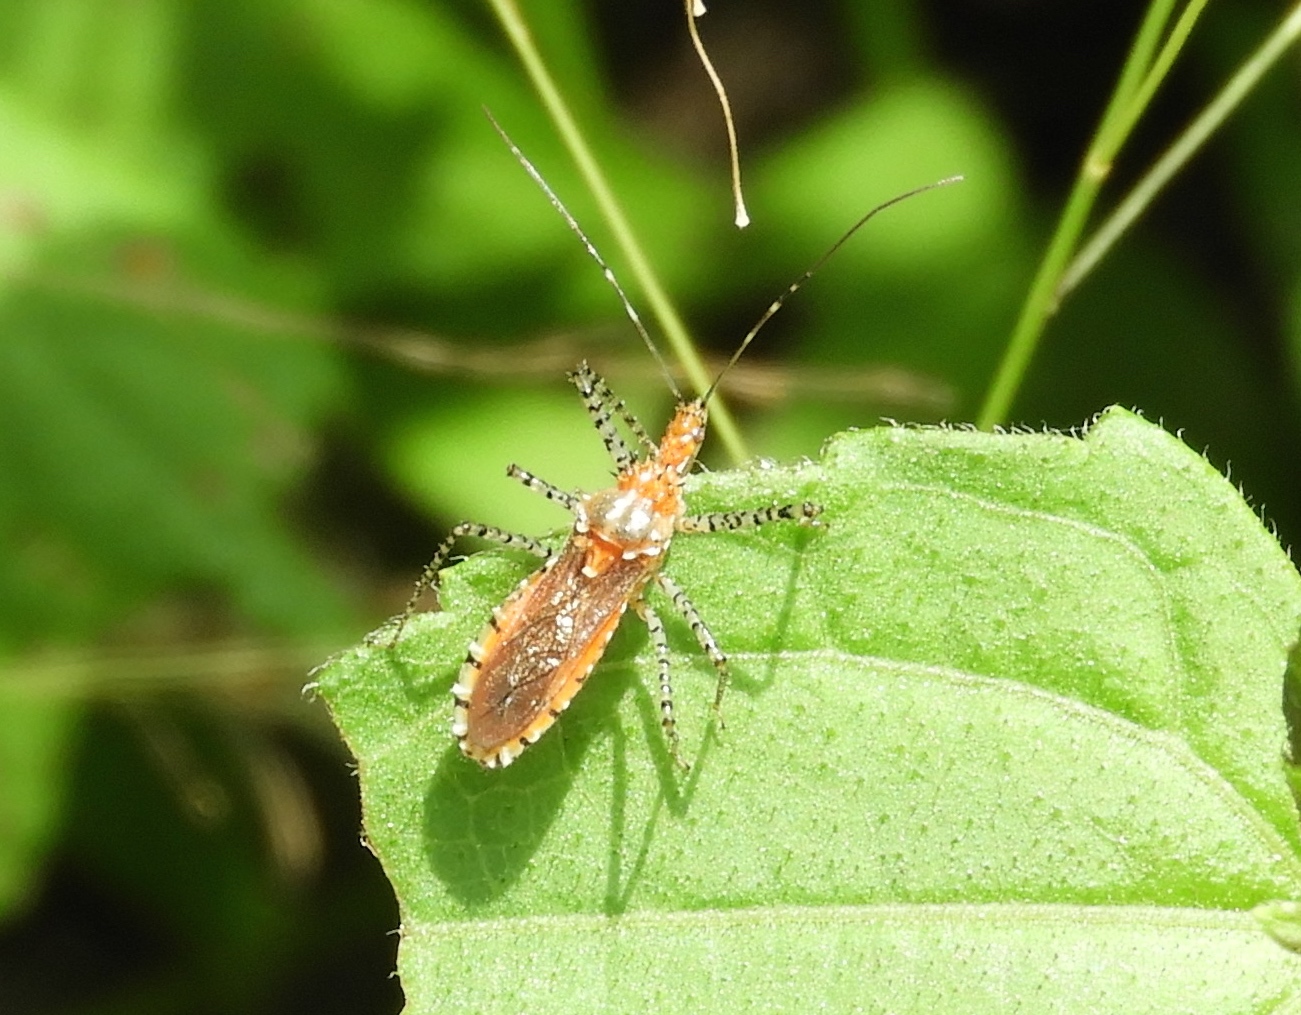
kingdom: Animalia
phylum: Arthropoda
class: Insecta
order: Hemiptera
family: Reduviidae
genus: Pselliopus
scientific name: Pselliopus
